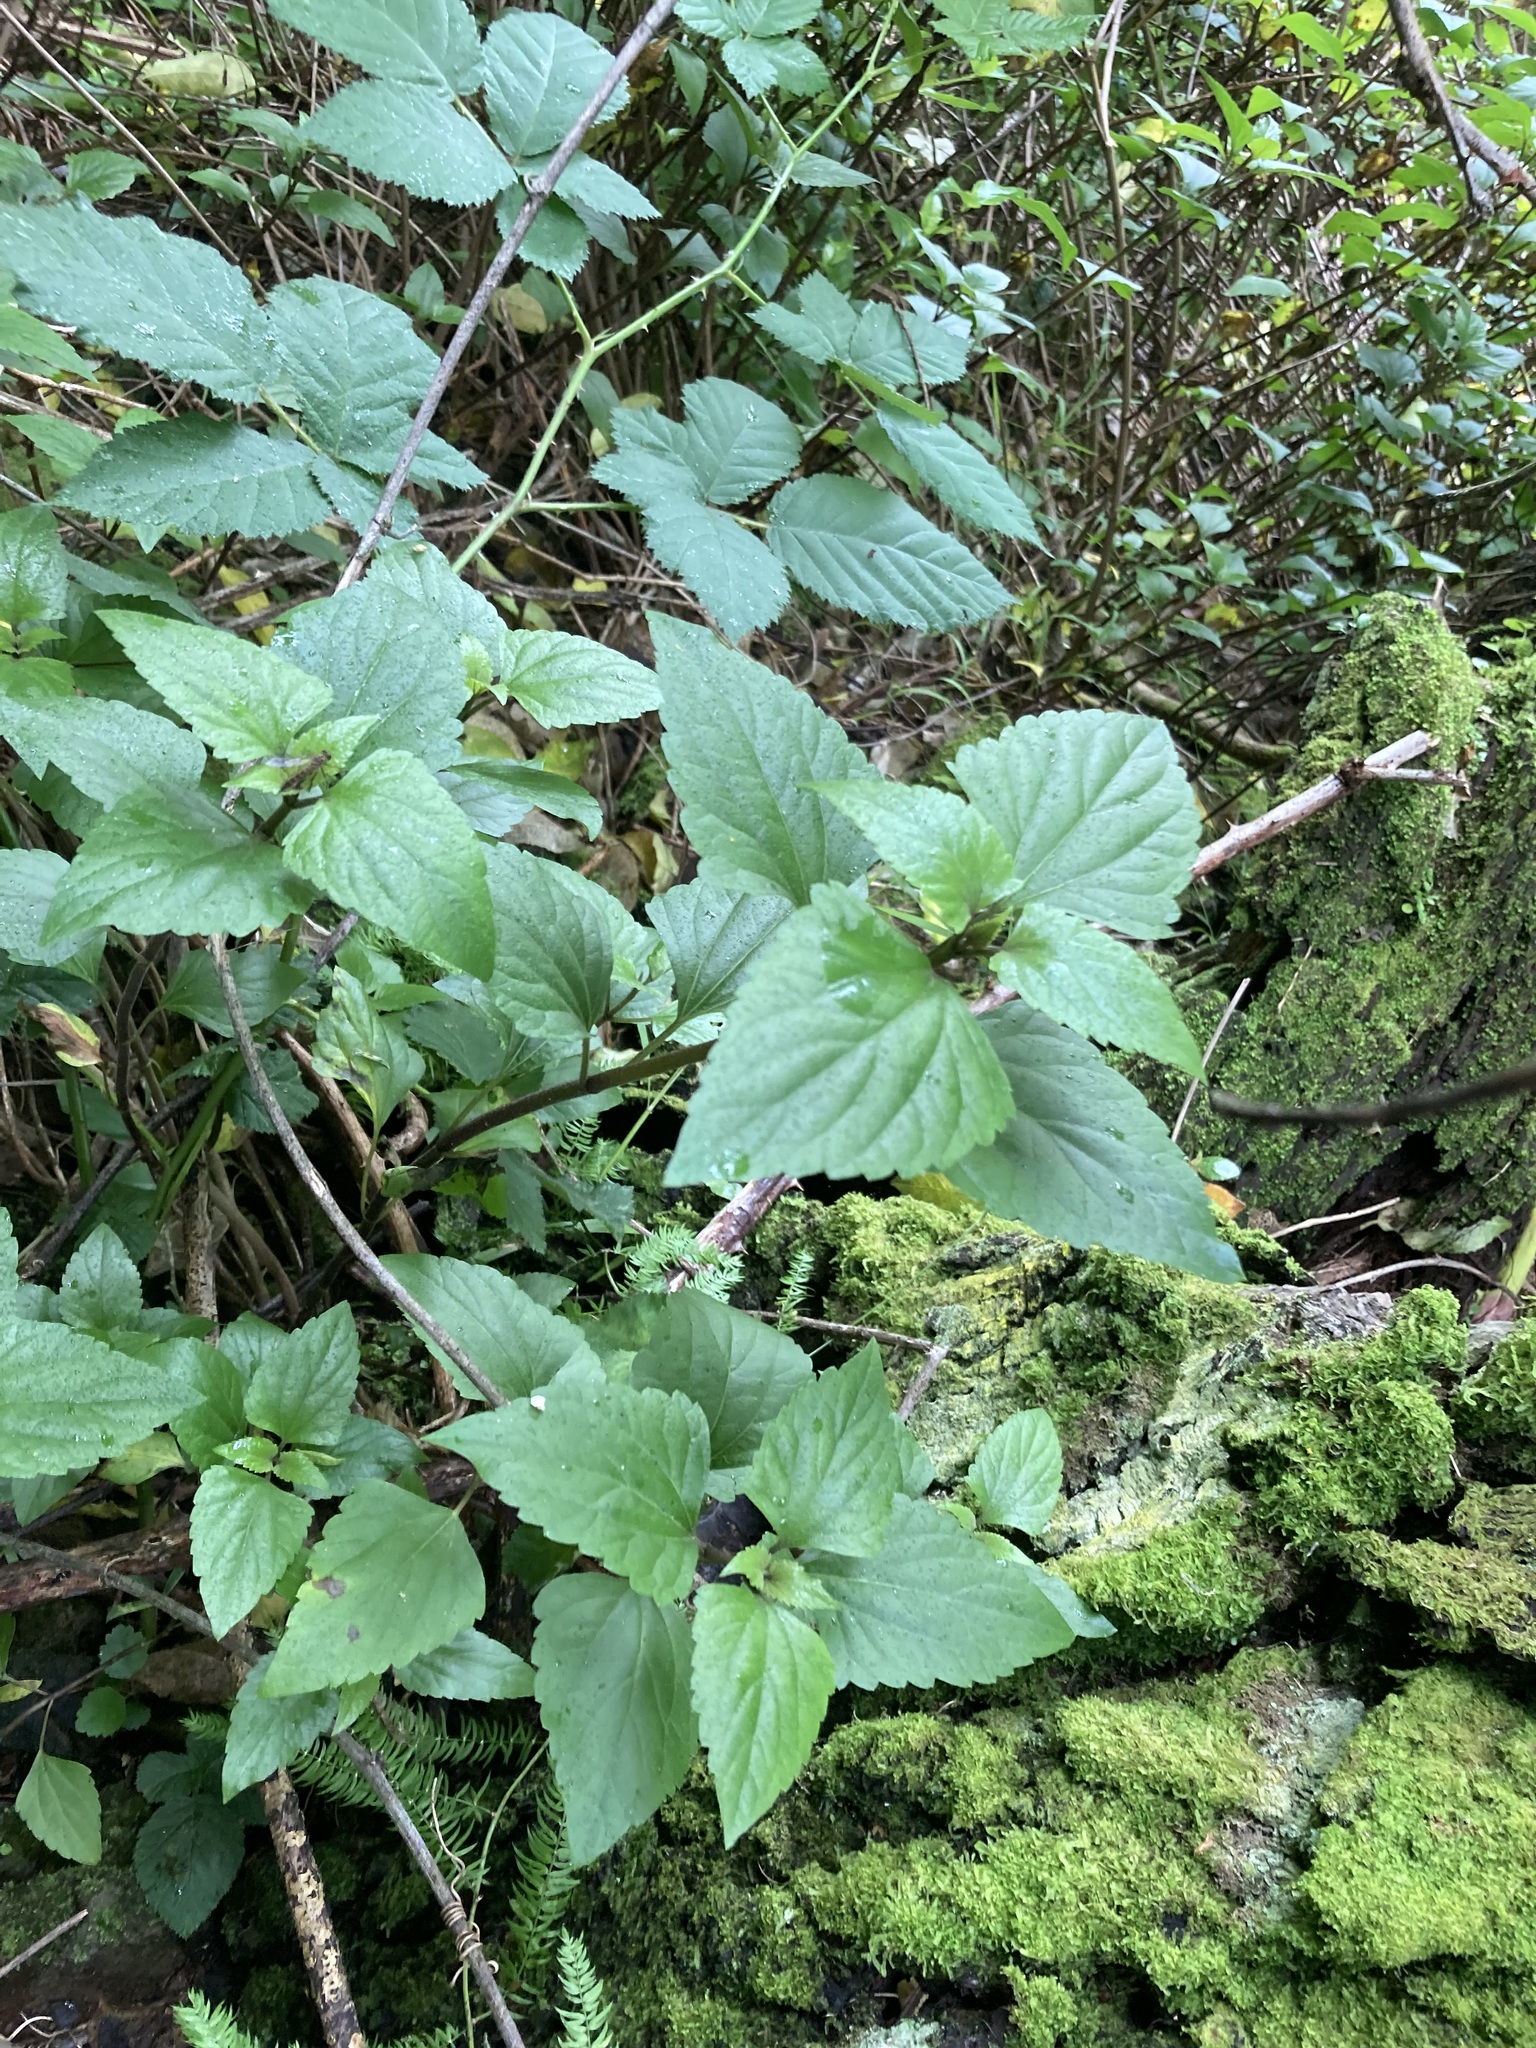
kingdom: Plantae
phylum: Tracheophyta
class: Magnoliopsida
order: Asterales
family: Asteraceae
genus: Ageratina
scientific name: Ageratina adenophora
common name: Sticky snakeroot
